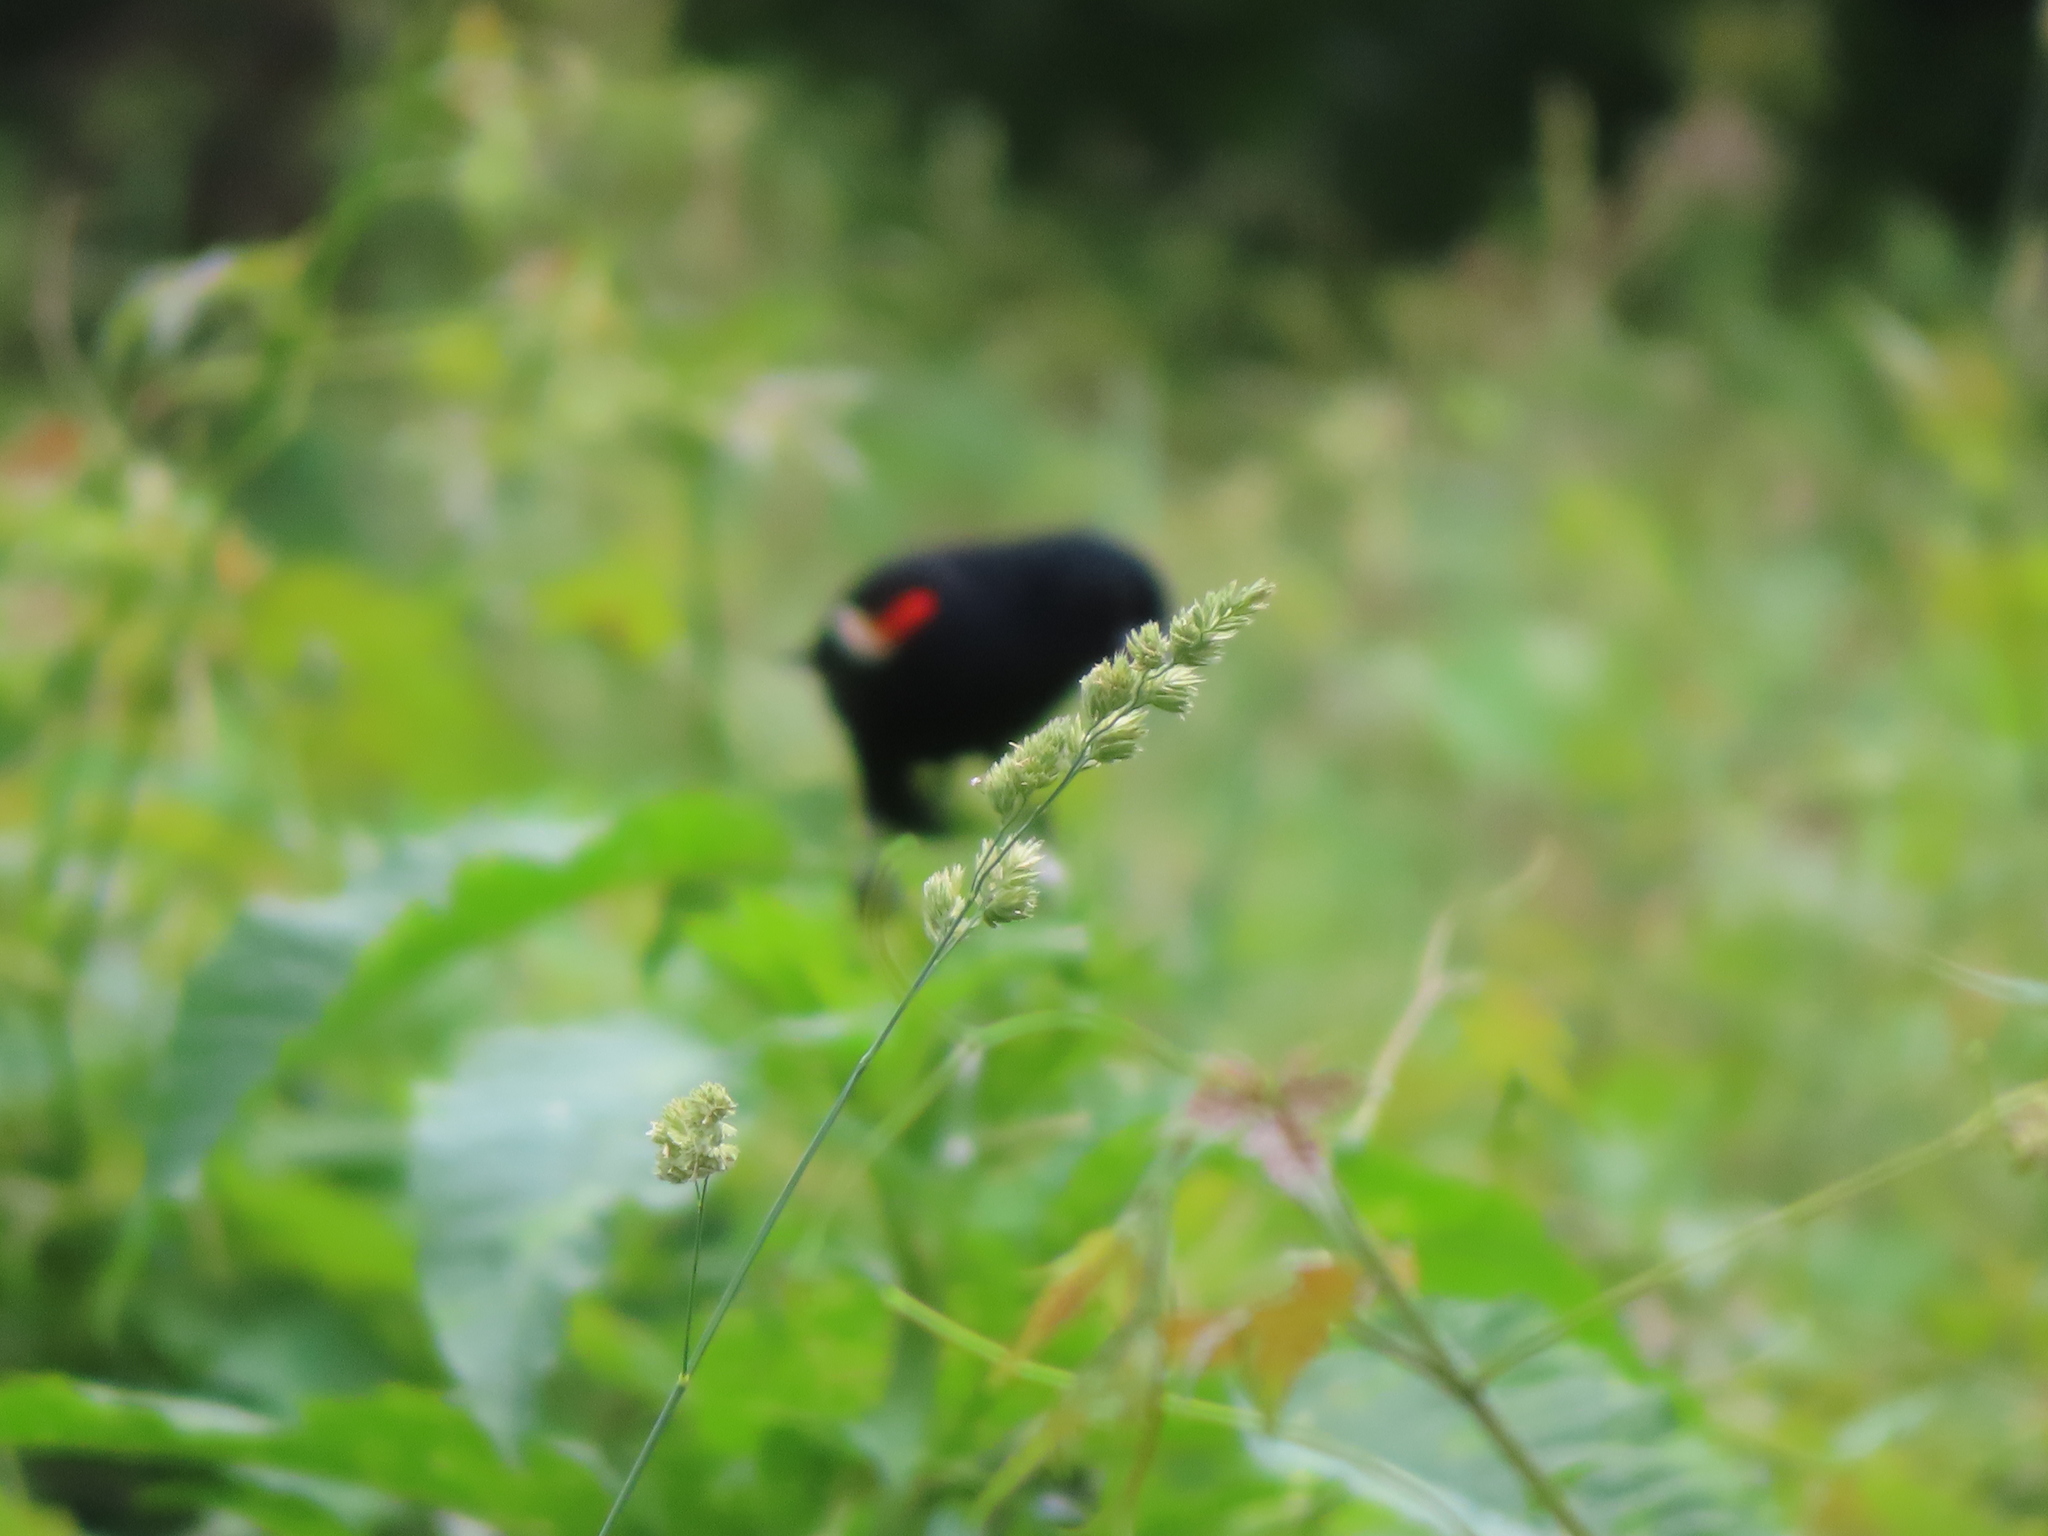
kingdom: Plantae
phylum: Tracheophyta
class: Liliopsida
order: Poales
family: Poaceae
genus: Dactylis
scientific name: Dactylis glomerata
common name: Orchardgrass
